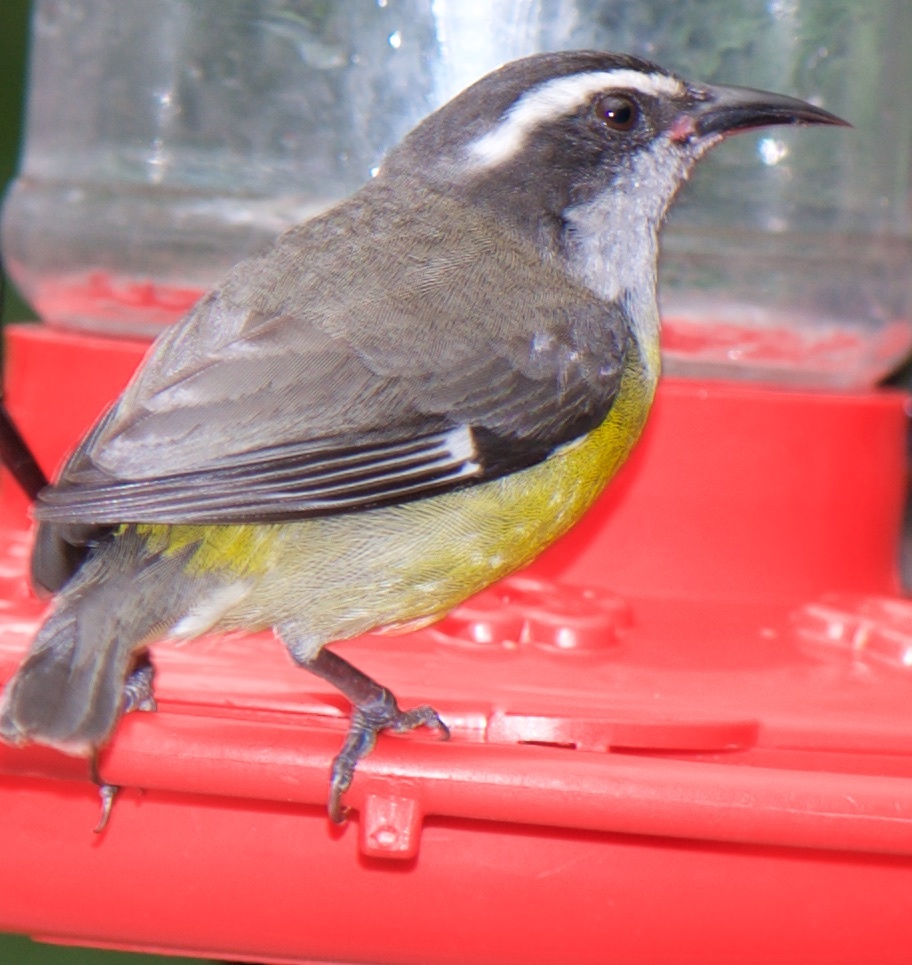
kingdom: Animalia
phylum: Chordata
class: Aves
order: Passeriformes
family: Thraupidae
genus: Coereba
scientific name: Coereba flaveola
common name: Bananaquit
